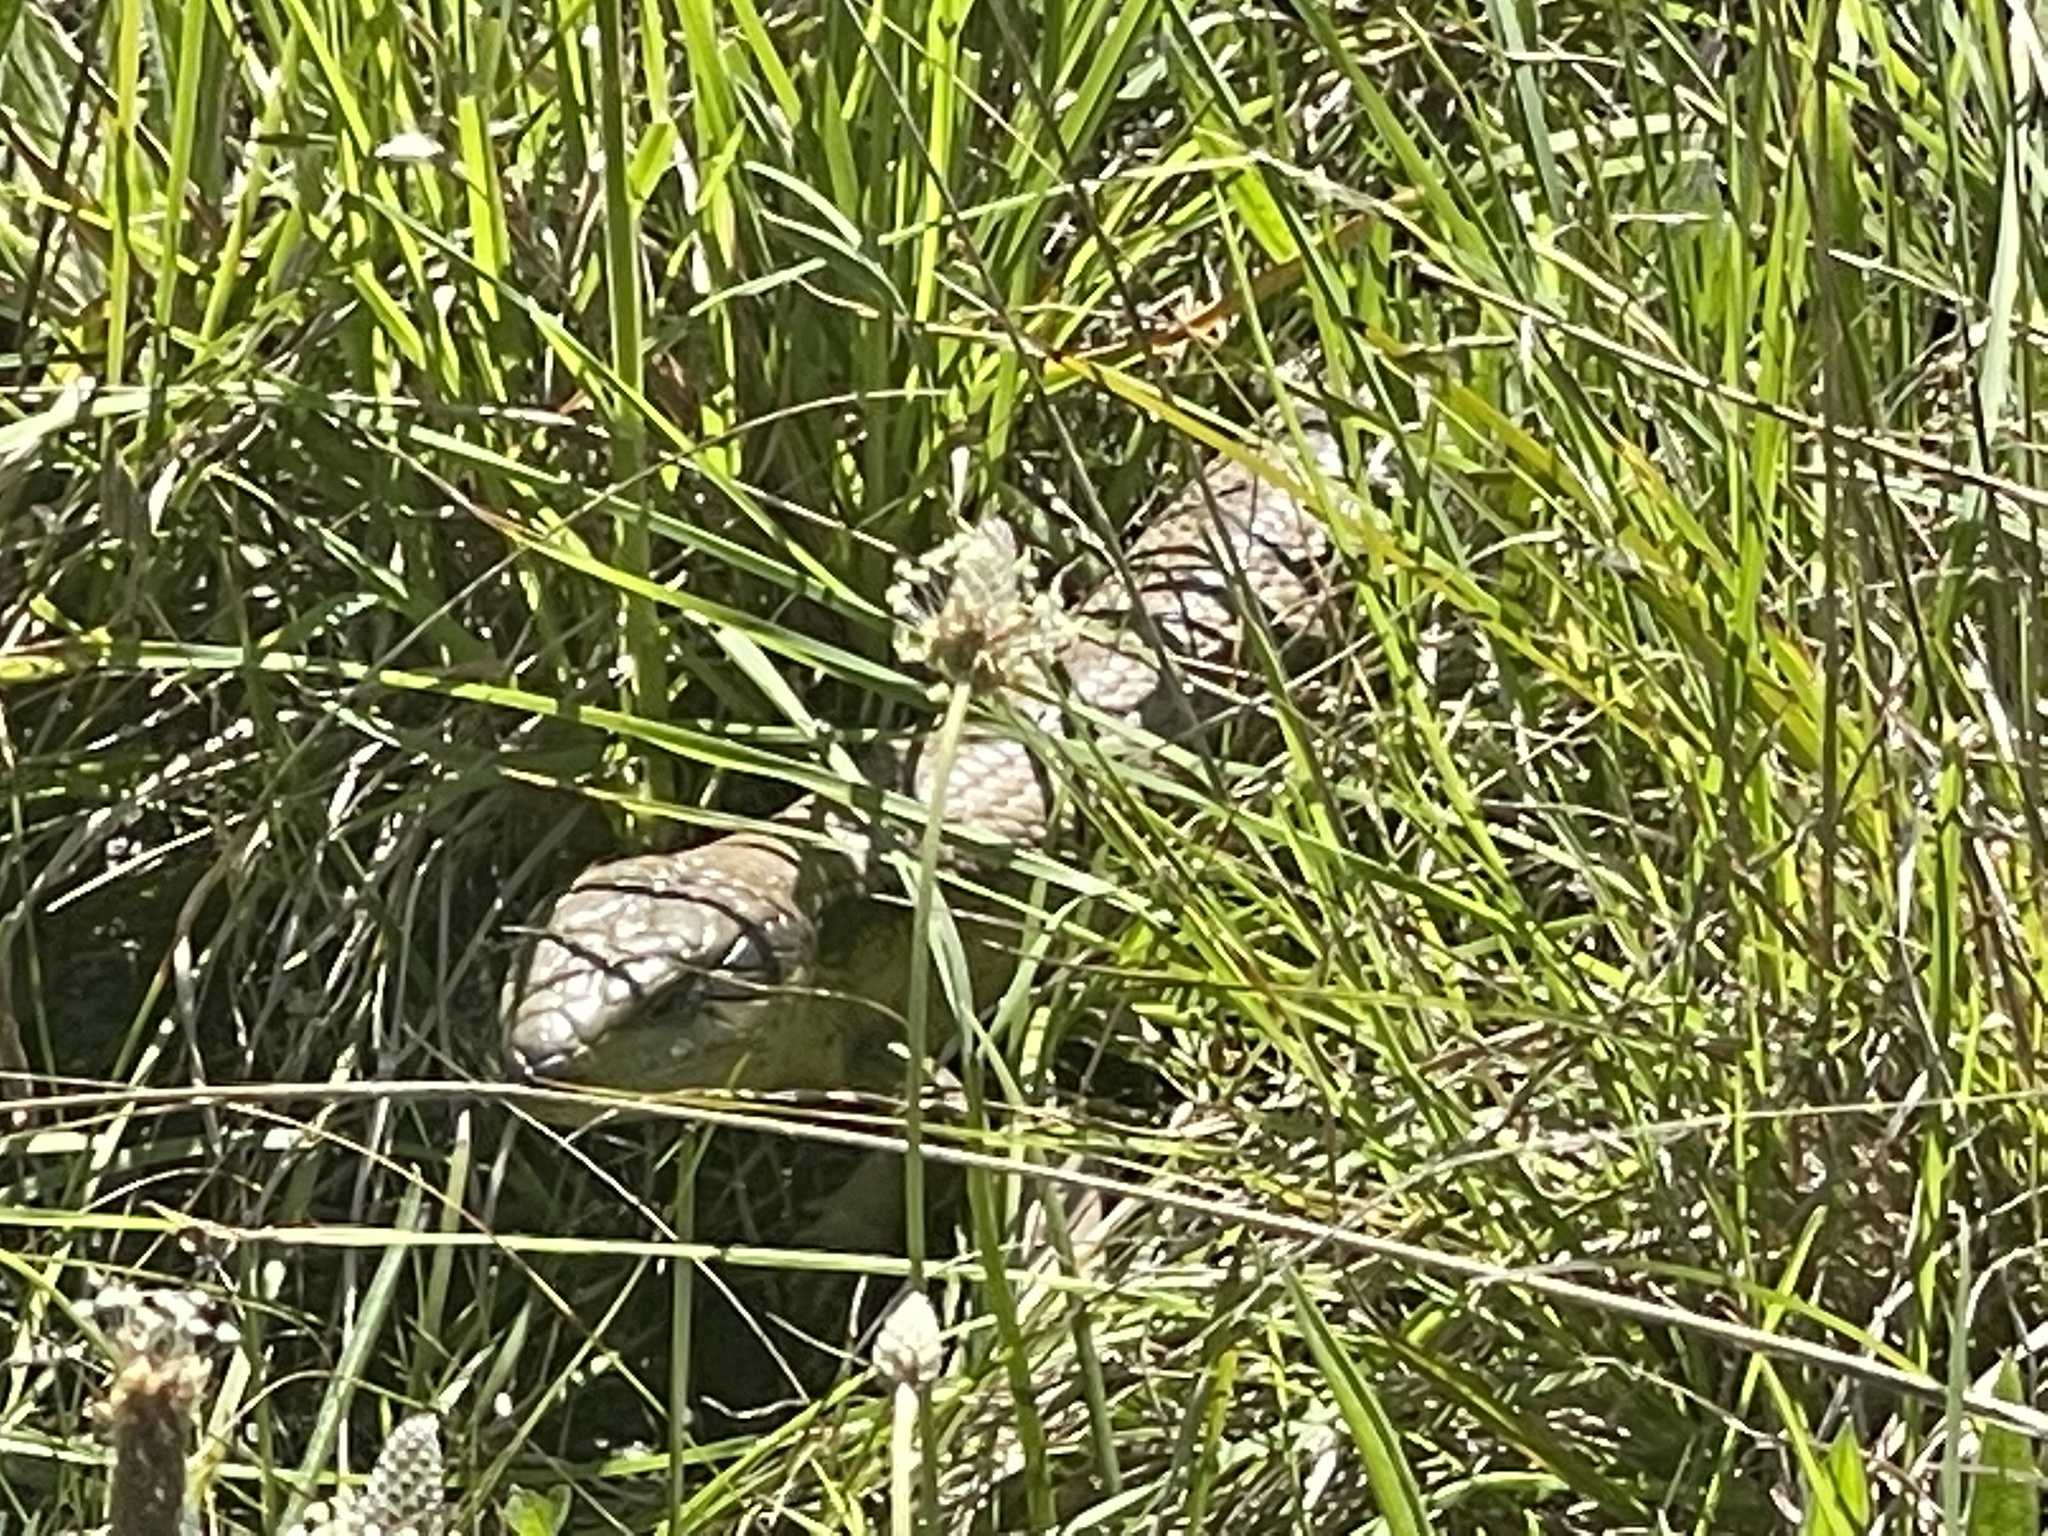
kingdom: Animalia
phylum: Chordata
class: Squamata
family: Scincidae
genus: Tiliqua
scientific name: Tiliqua scincoides
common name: Common bluetongue
